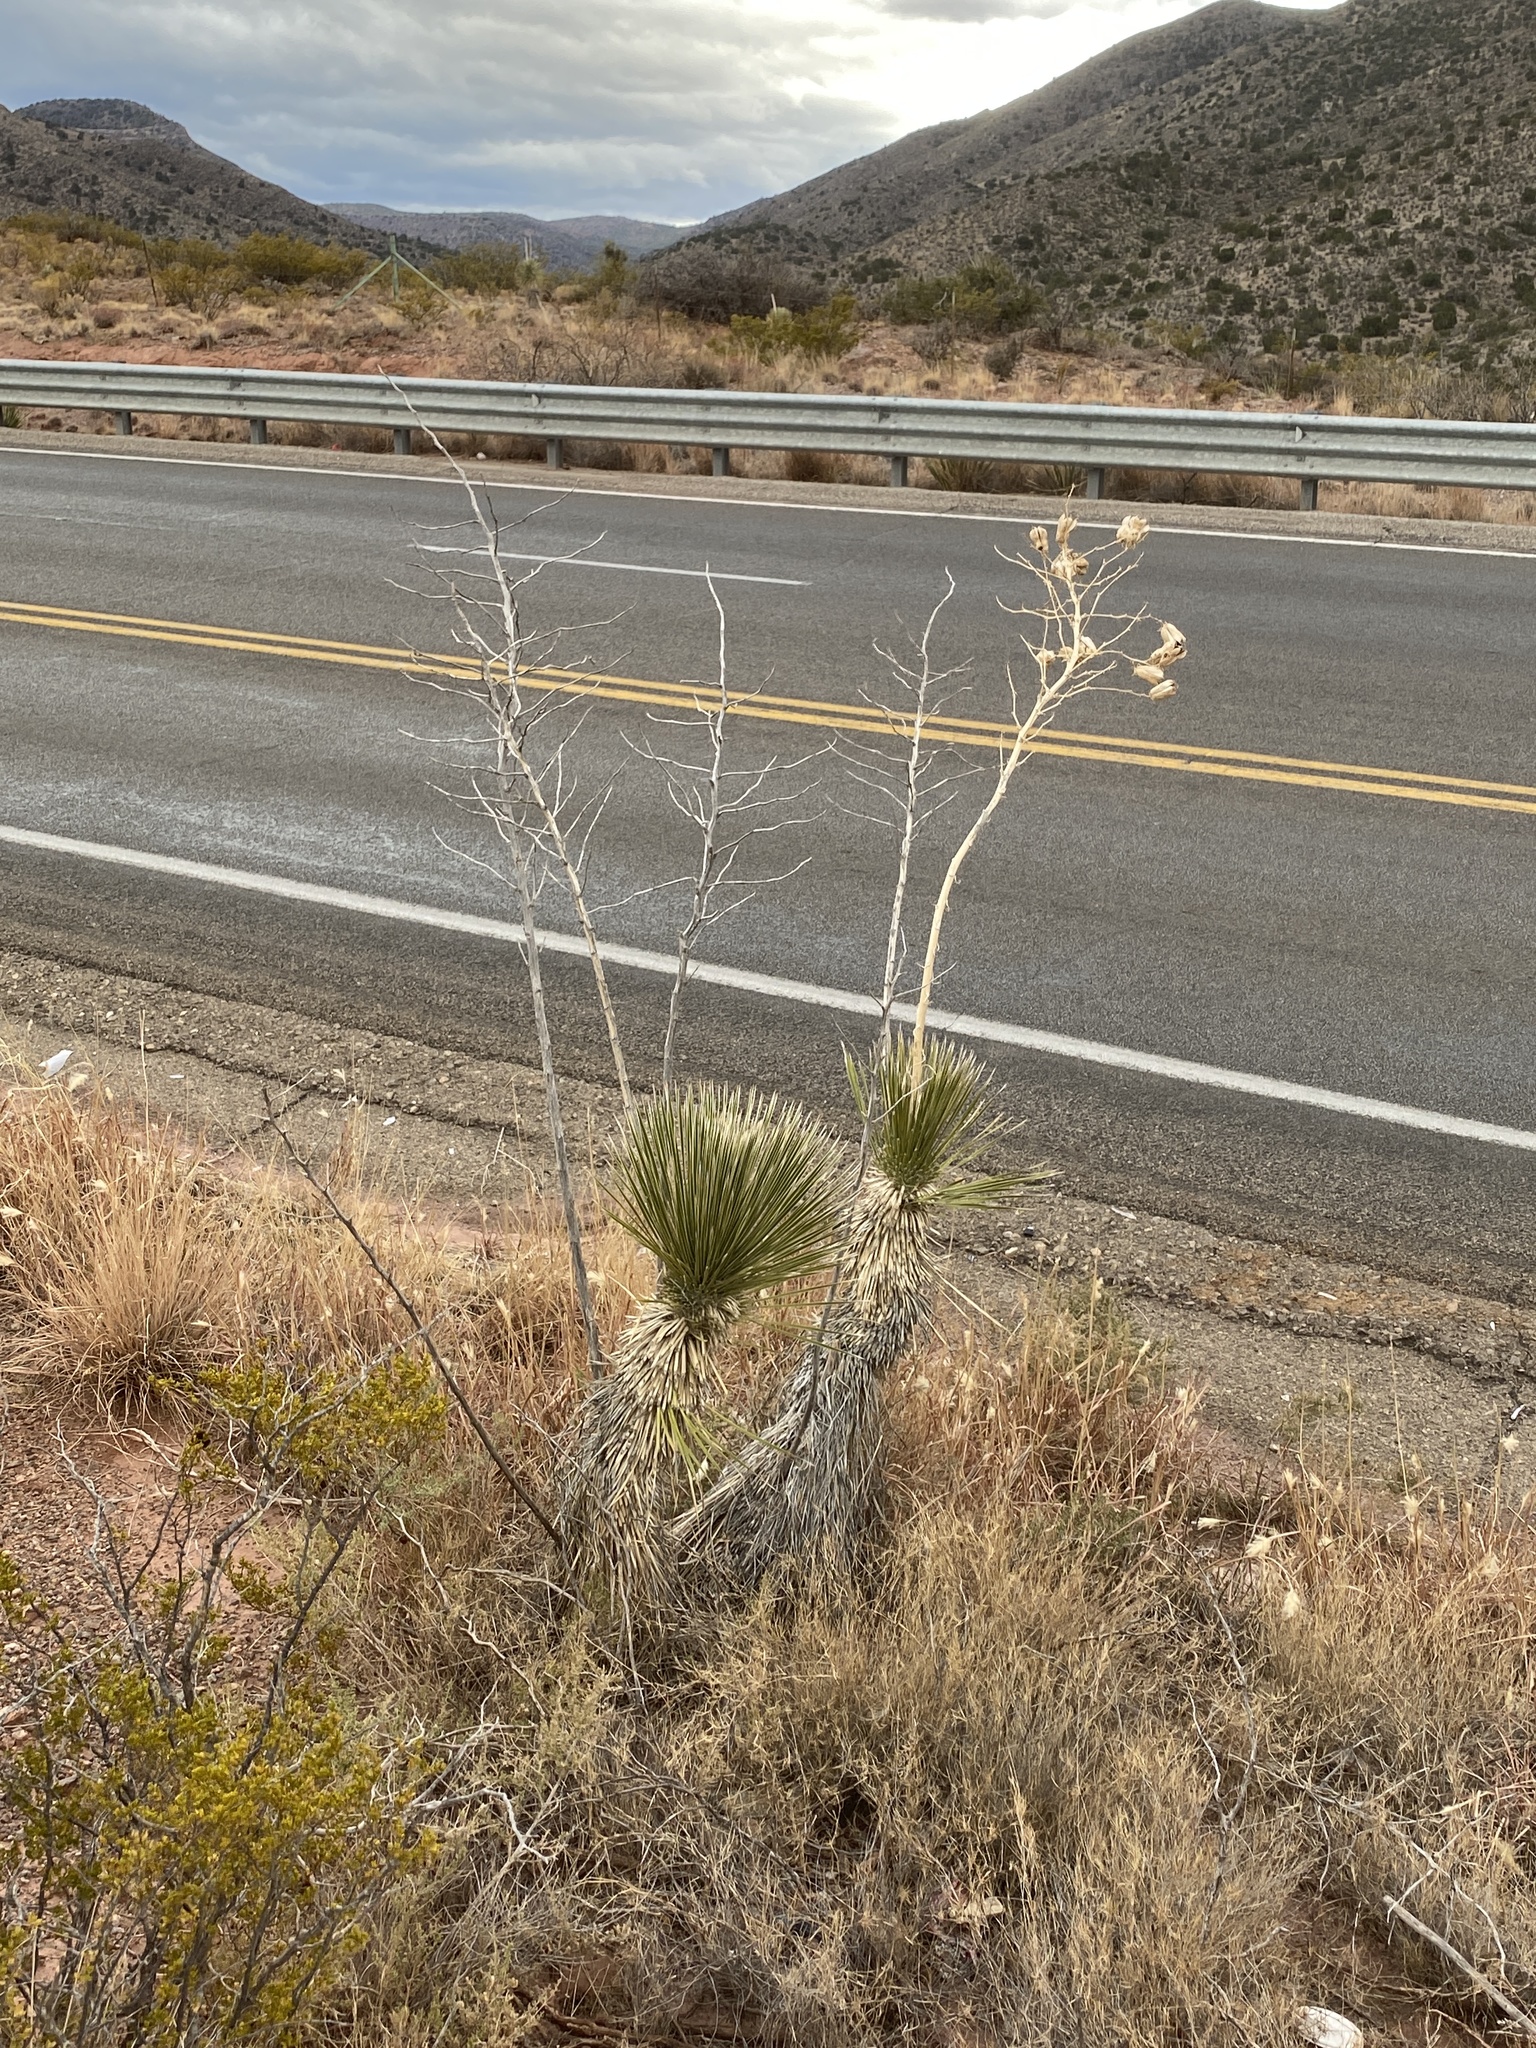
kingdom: Plantae
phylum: Tracheophyta
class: Liliopsida
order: Asparagales
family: Asparagaceae
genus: Yucca
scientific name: Yucca elata
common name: Palmella
